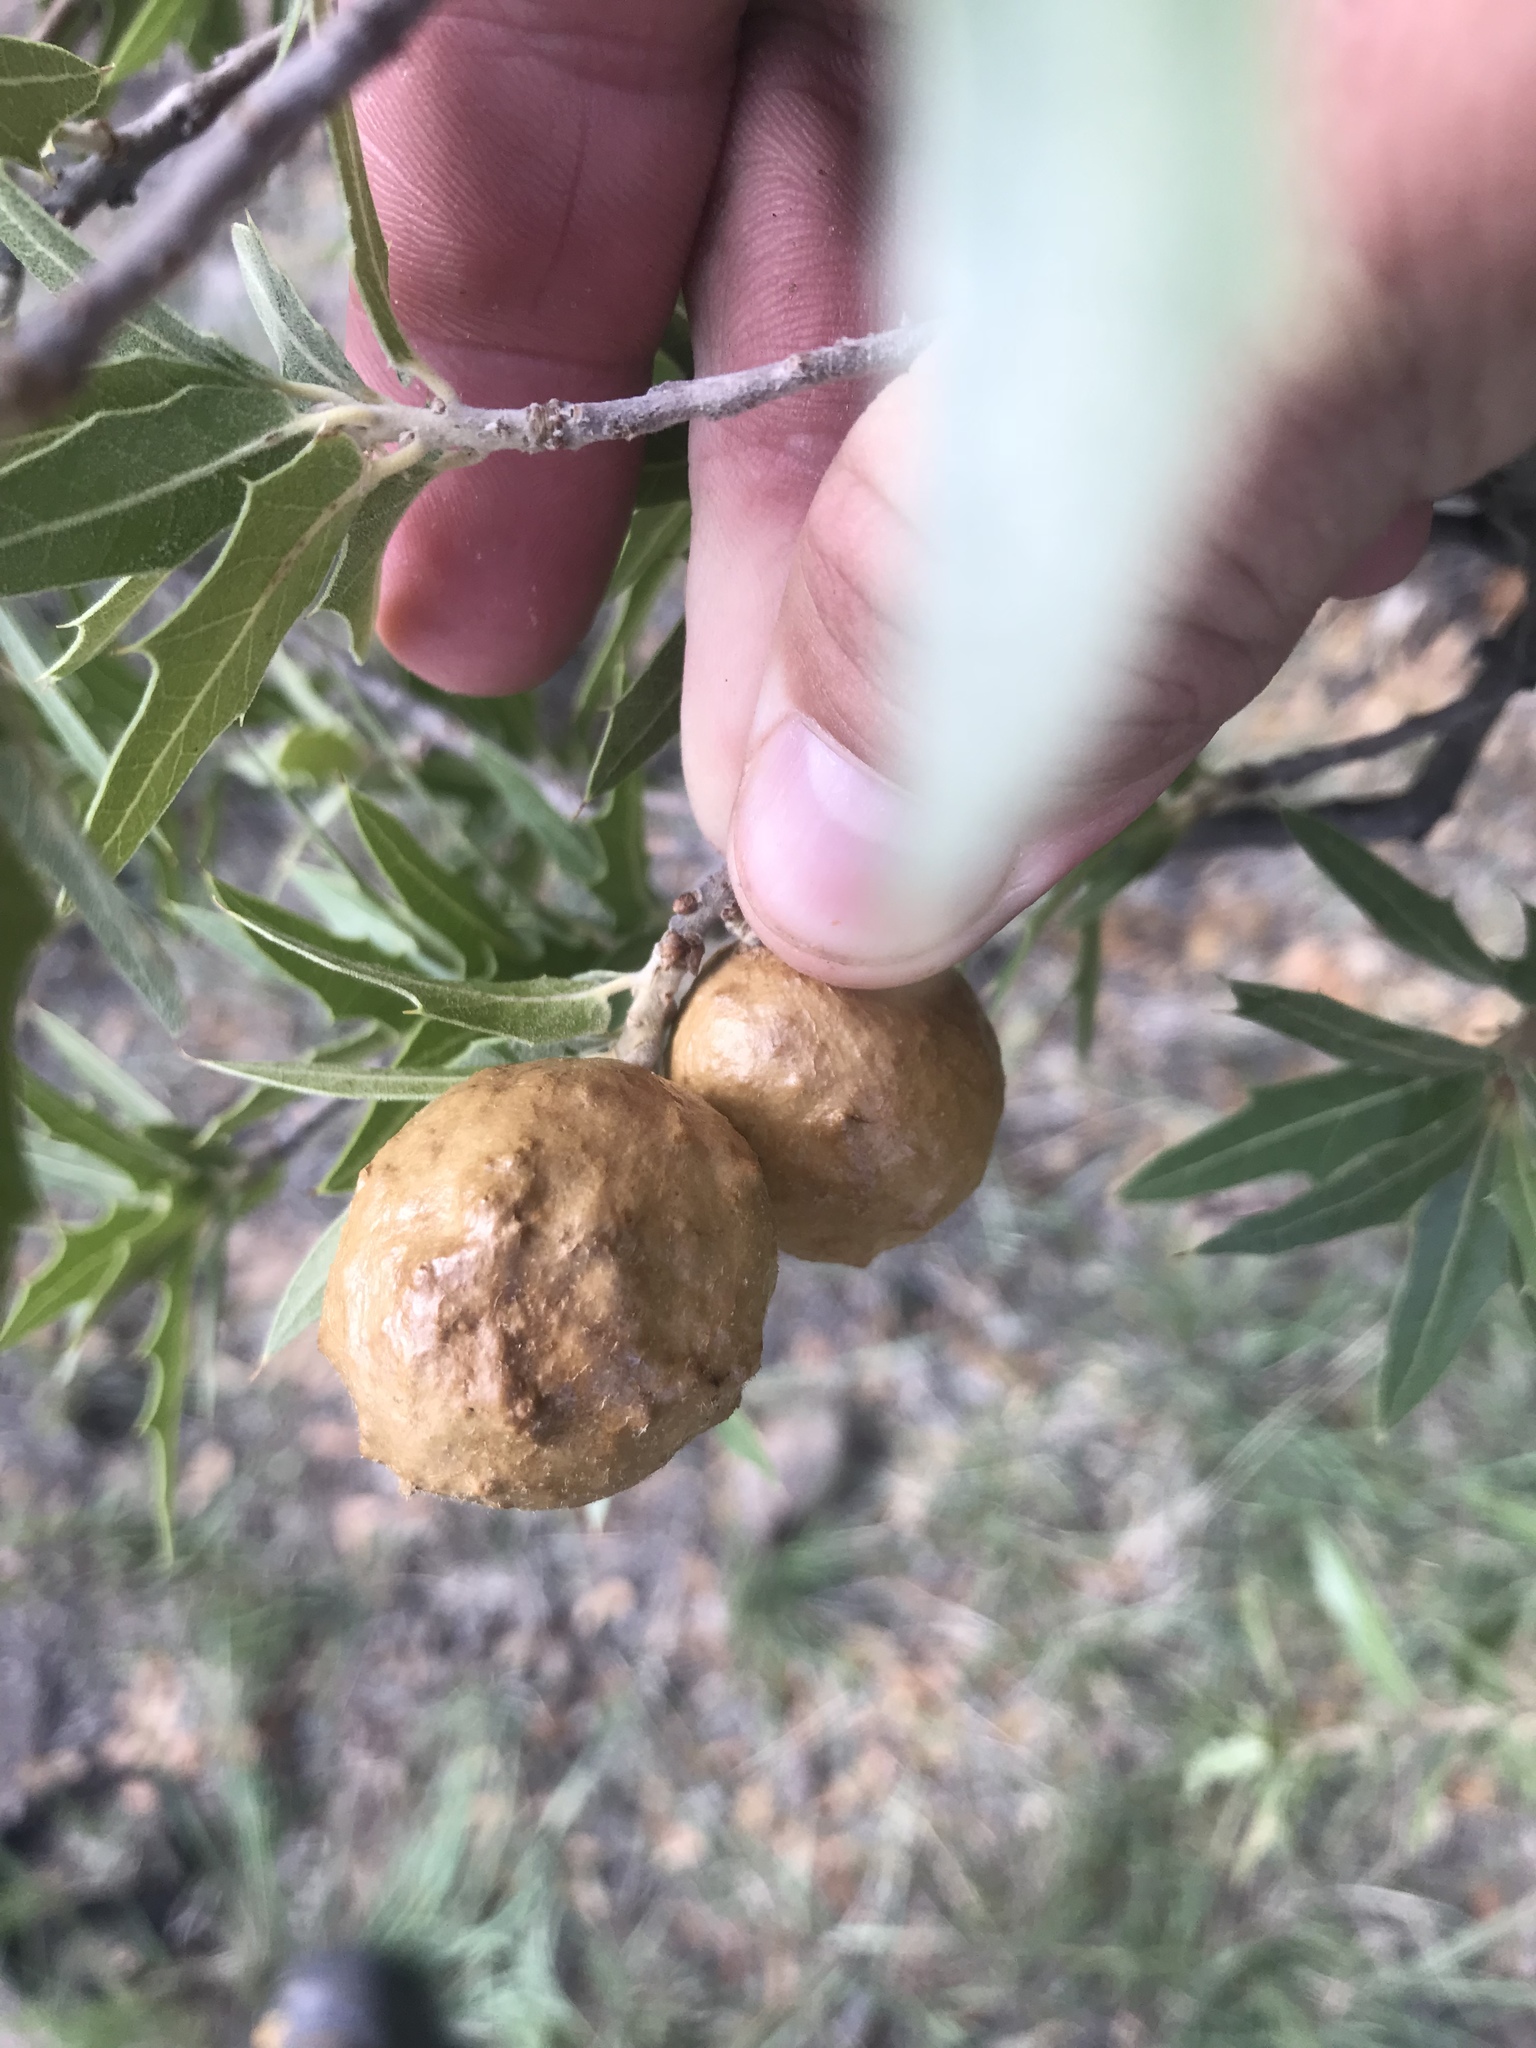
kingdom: Animalia
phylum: Arthropoda
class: Insecta
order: Hymenoptera
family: Cynipidae
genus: Amphibolips
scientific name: Amphibolips
